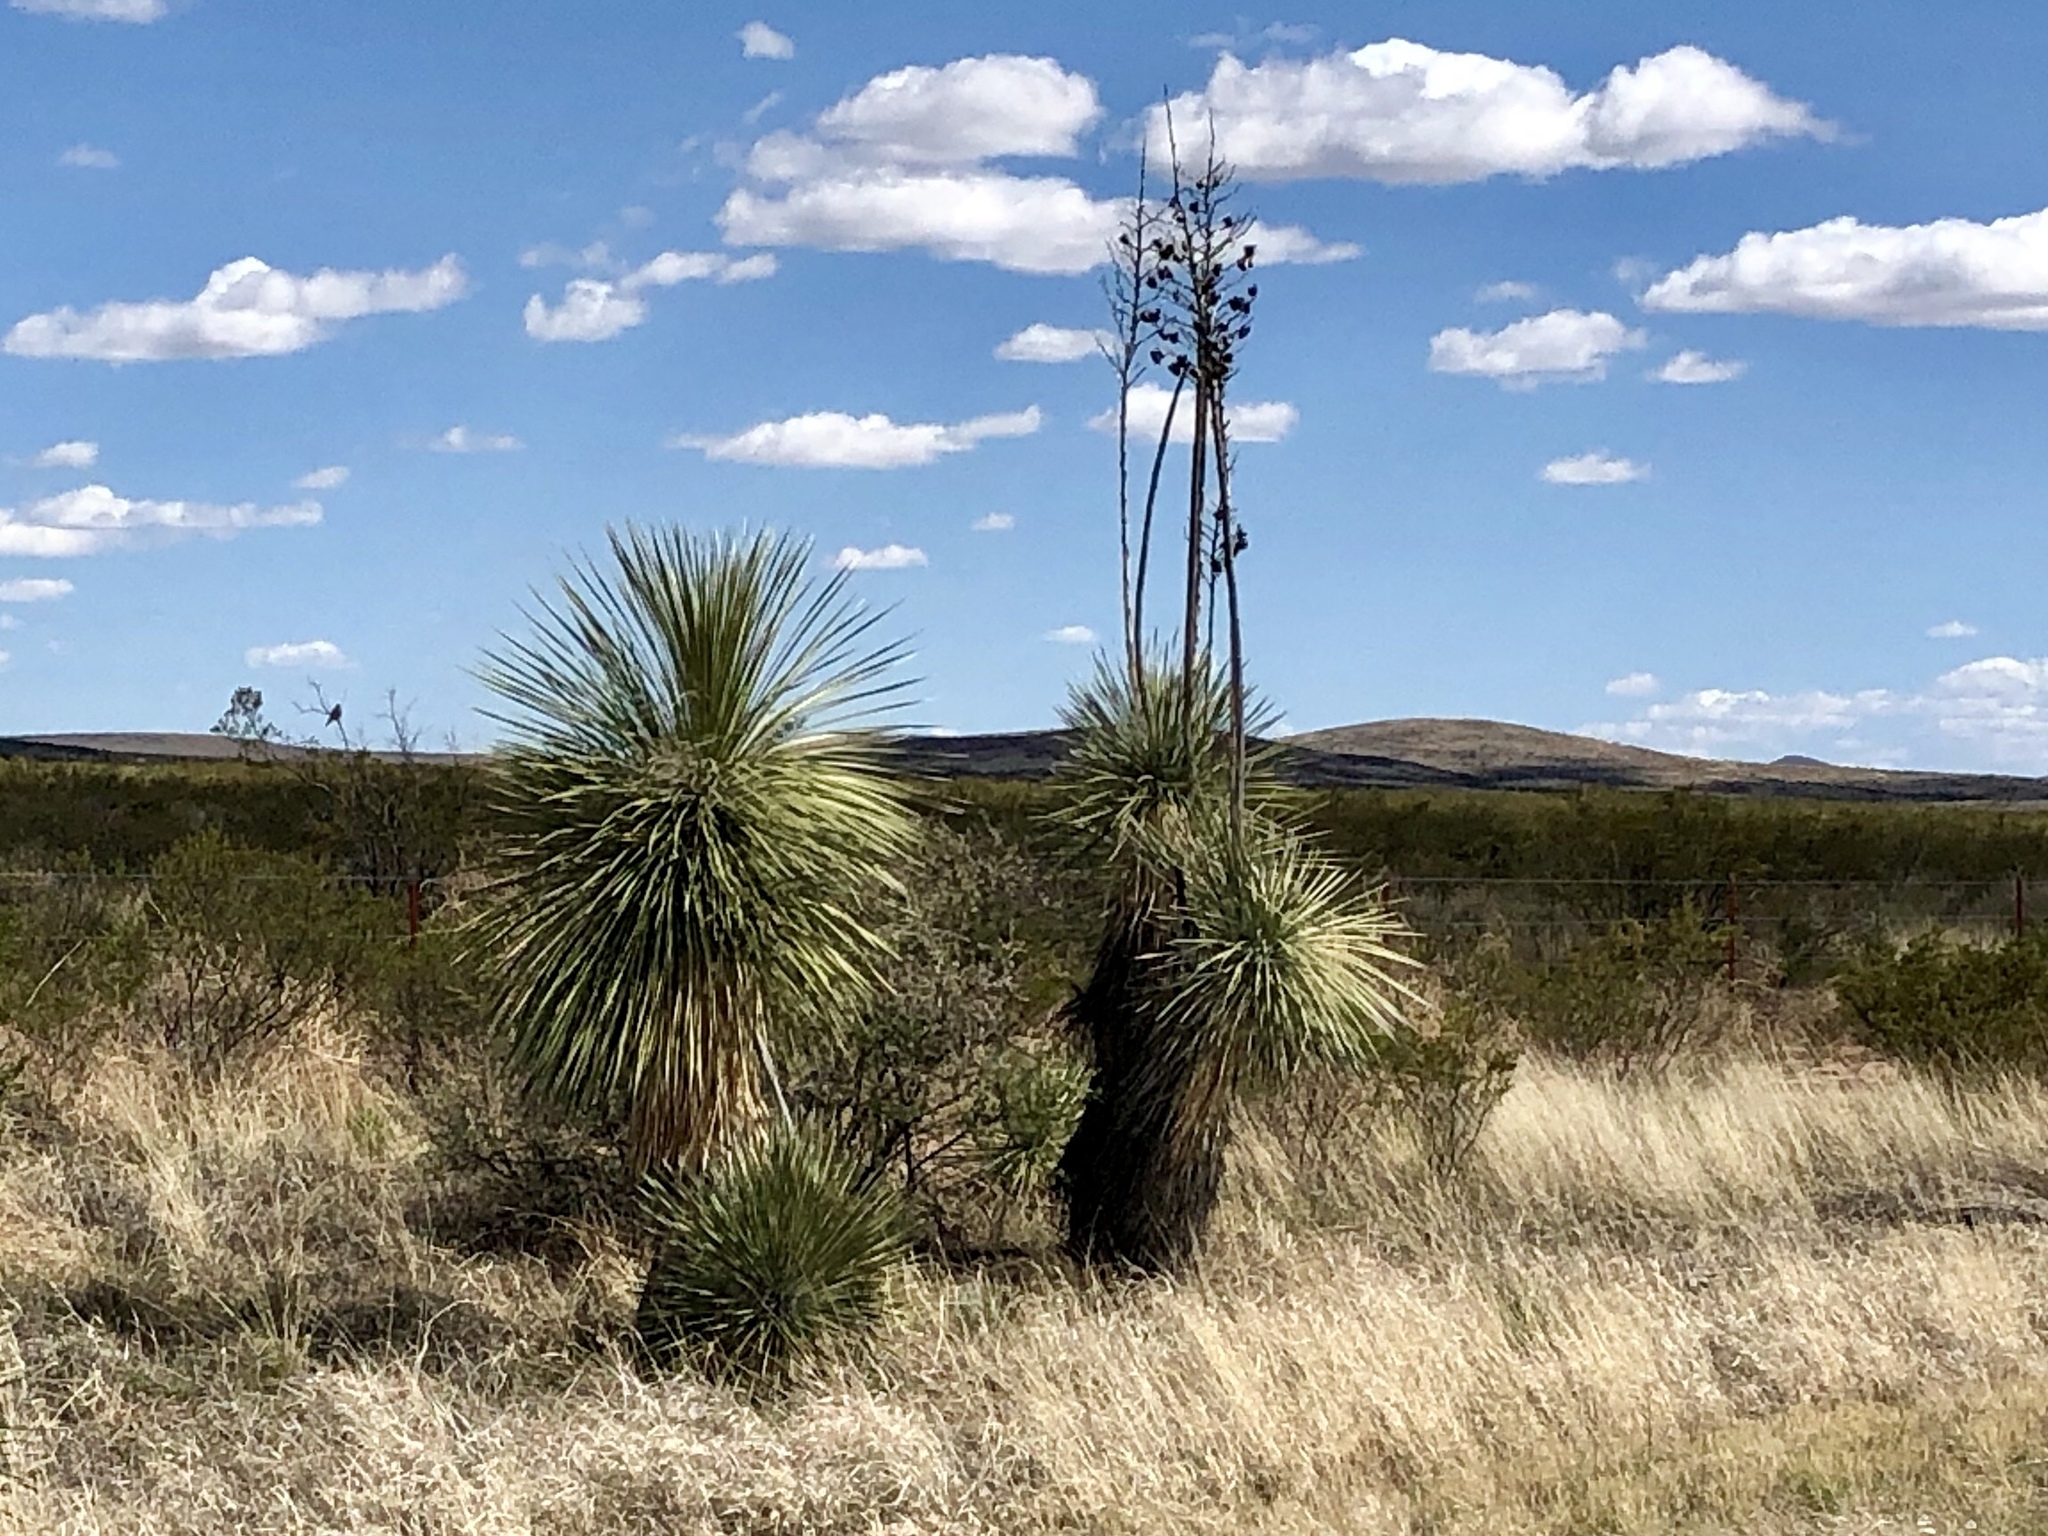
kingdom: Plantae
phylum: Tracheophyta
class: Liliopsida
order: Asparagales
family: Asparagaceae
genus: Yucca
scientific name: Yucca elata
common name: Palmella
